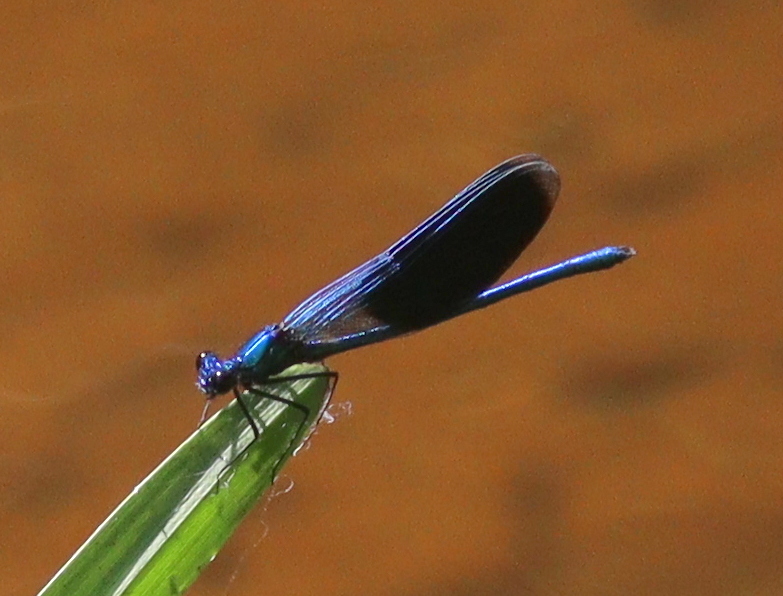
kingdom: Animalia
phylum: Arthropoda
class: Insecta
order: Odonata
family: Calopterygidae
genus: Calopteryx
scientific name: Calopteryx splendens
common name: Banded demoiselle
